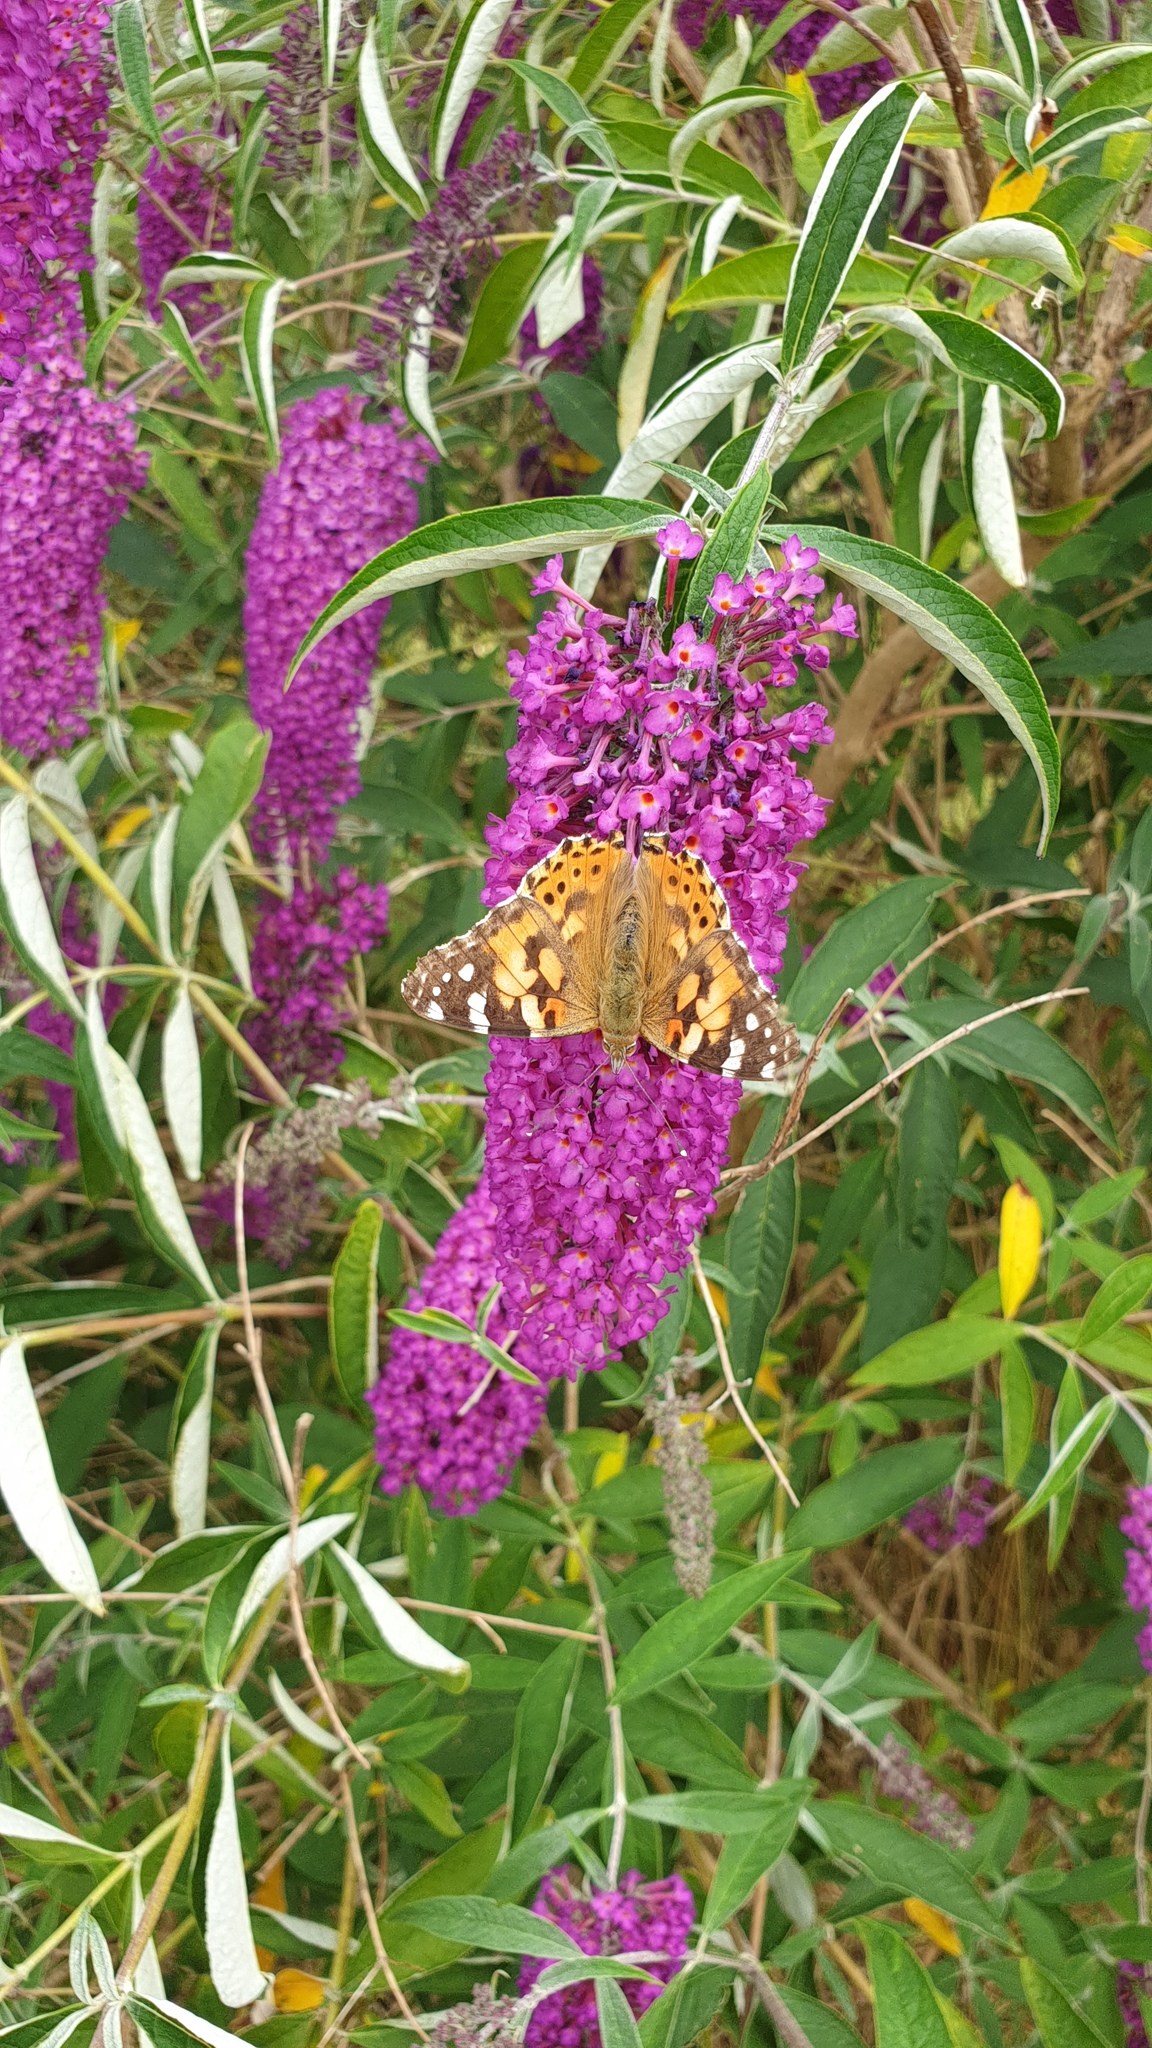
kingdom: Animalia
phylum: Arthropoda
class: Insecta
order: Lepidoptera
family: Nymphalidae
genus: Vanessa
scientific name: Vanessa cardui
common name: Painted lady
